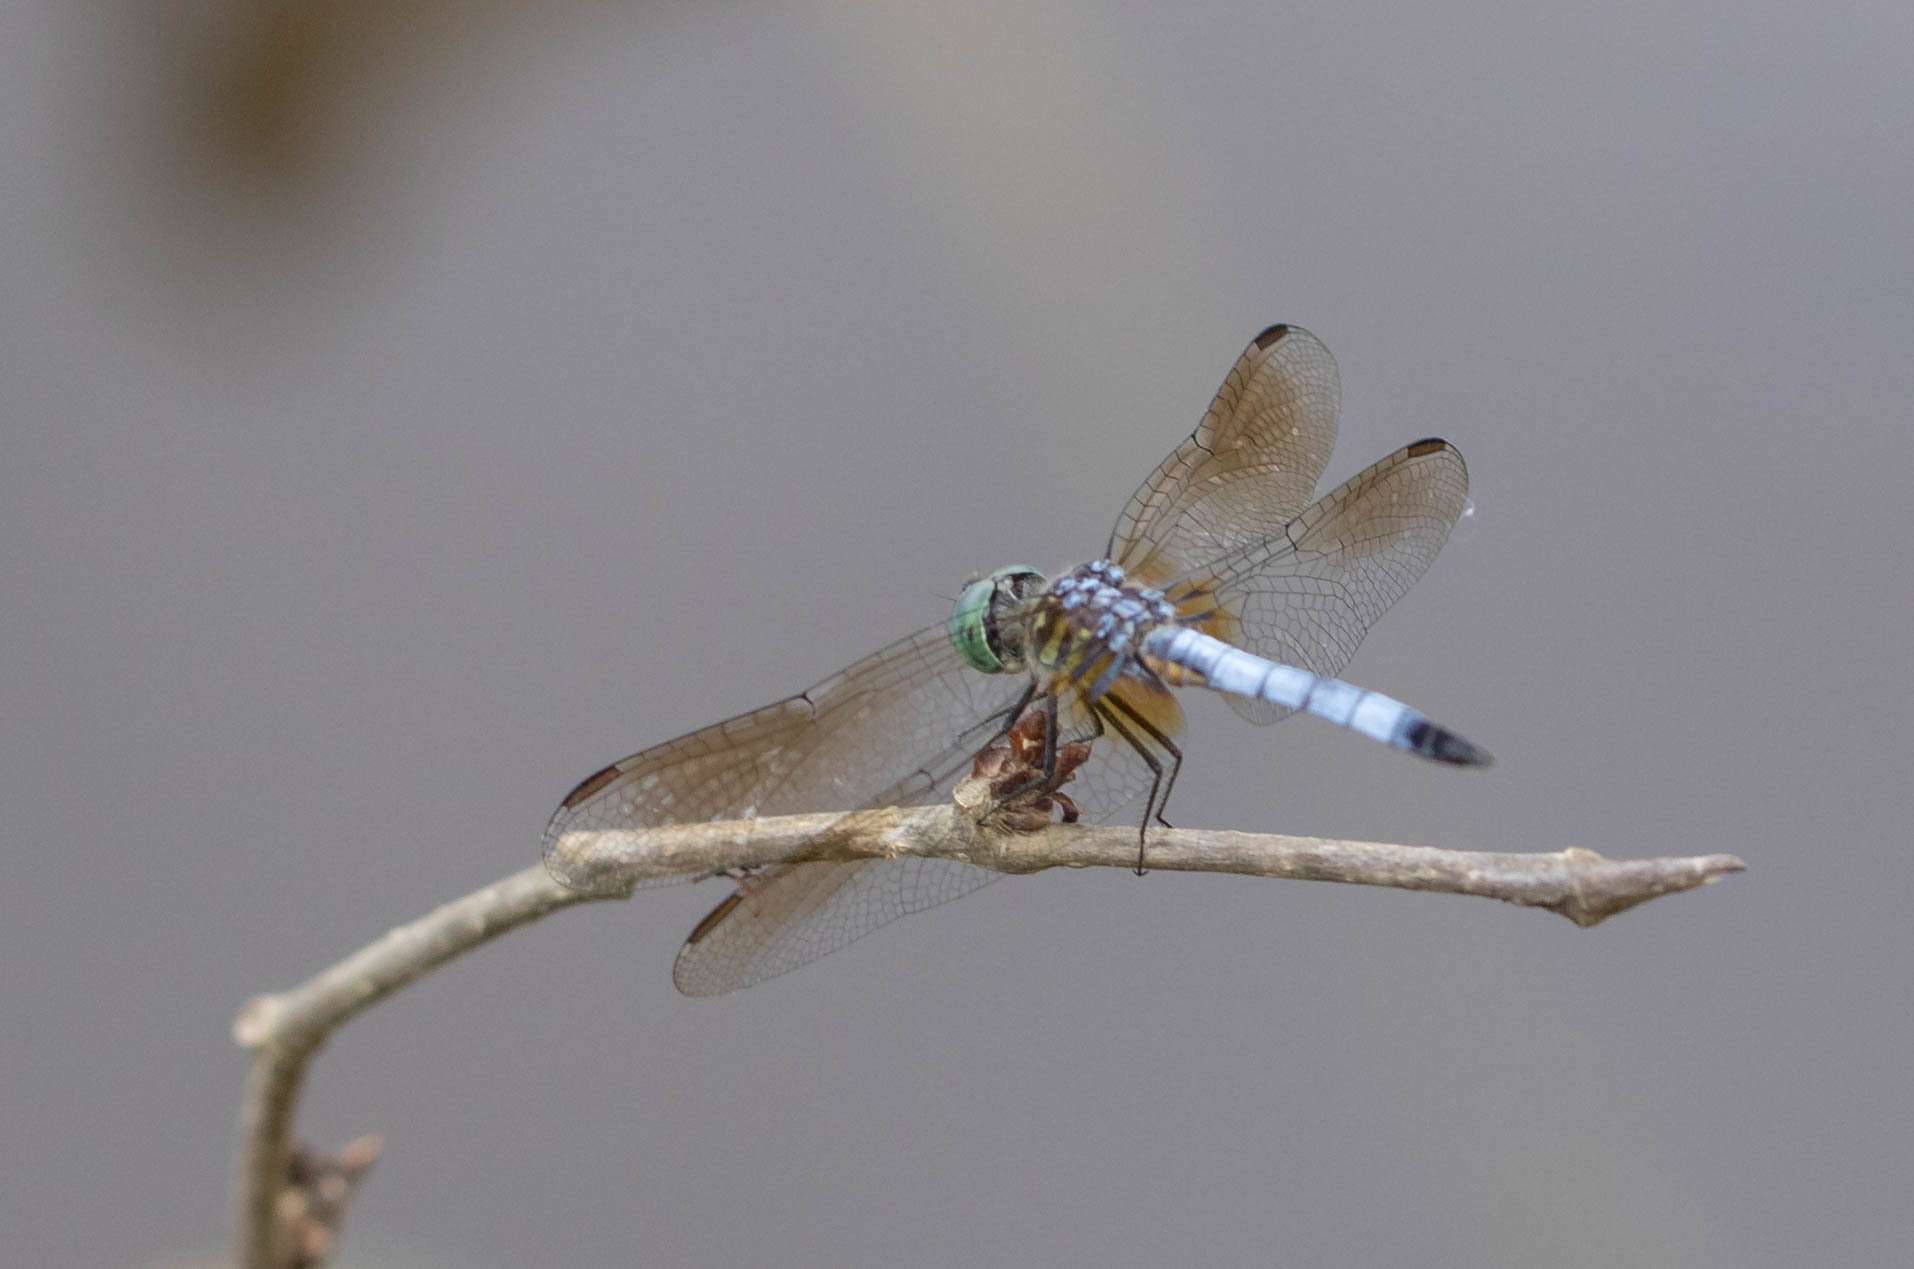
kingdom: Animalia
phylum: Arthropoda
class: Insecta
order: Odonata
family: Libellulidae
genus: Pachydiplax
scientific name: Pachydiplax longipennis
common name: Blue dasher
